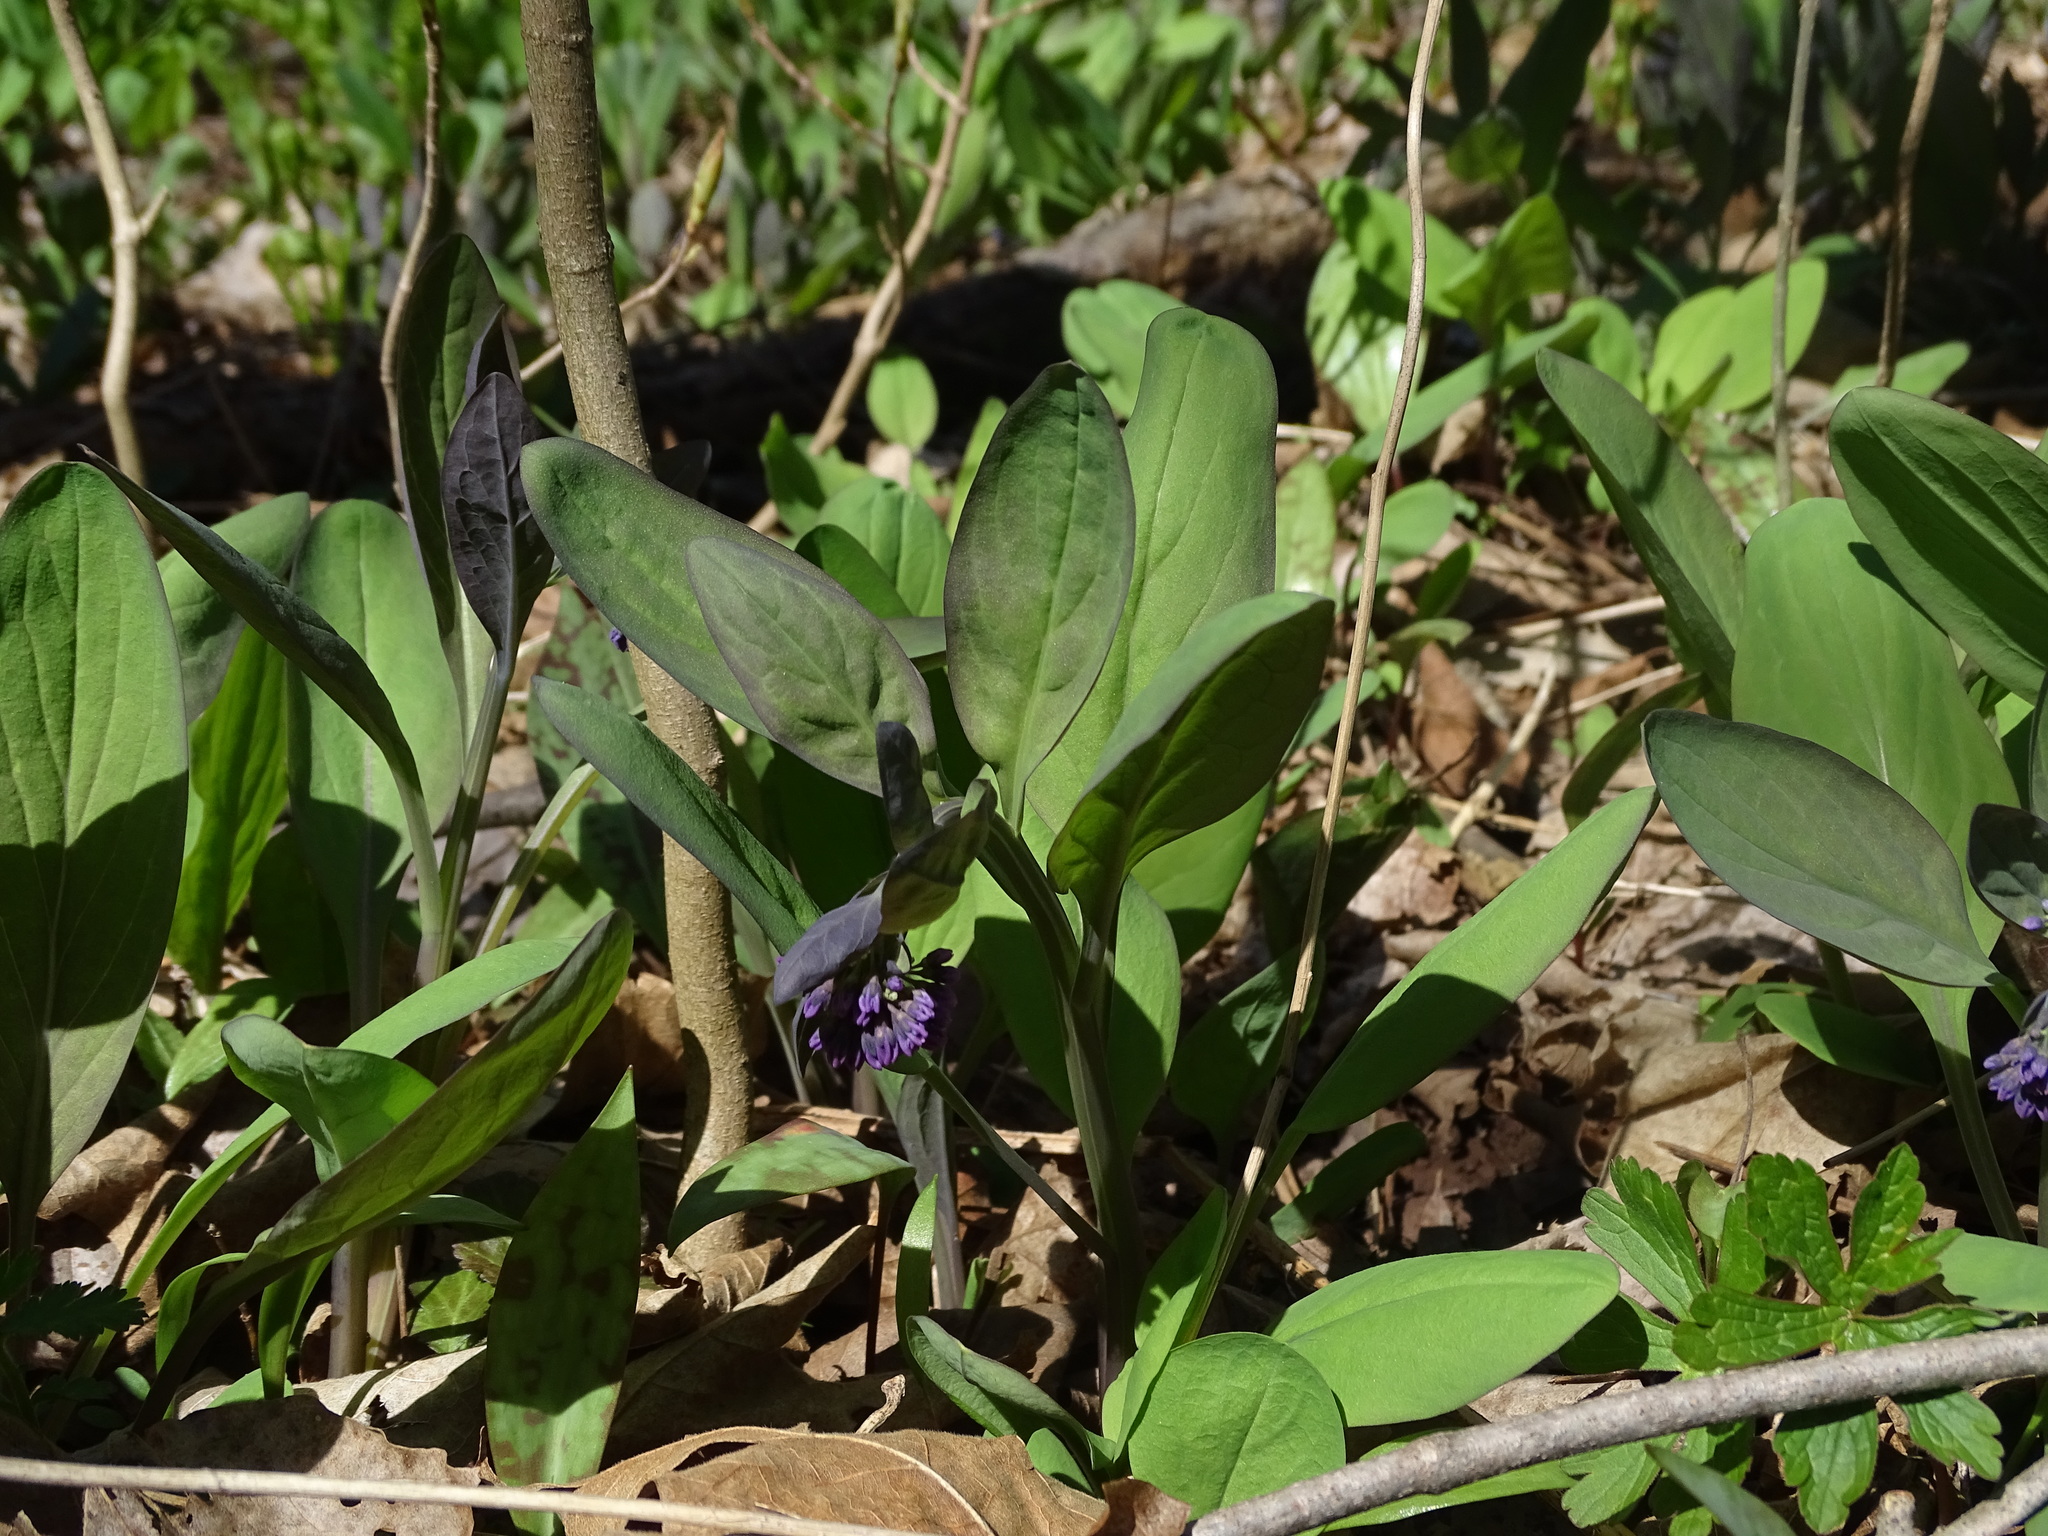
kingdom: Plantae
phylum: Tracheophyta
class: Magnoliopsida
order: Boraginales
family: Boraginaceae
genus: Mertensia
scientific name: Mertensia virginica
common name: Virginia bluebells
